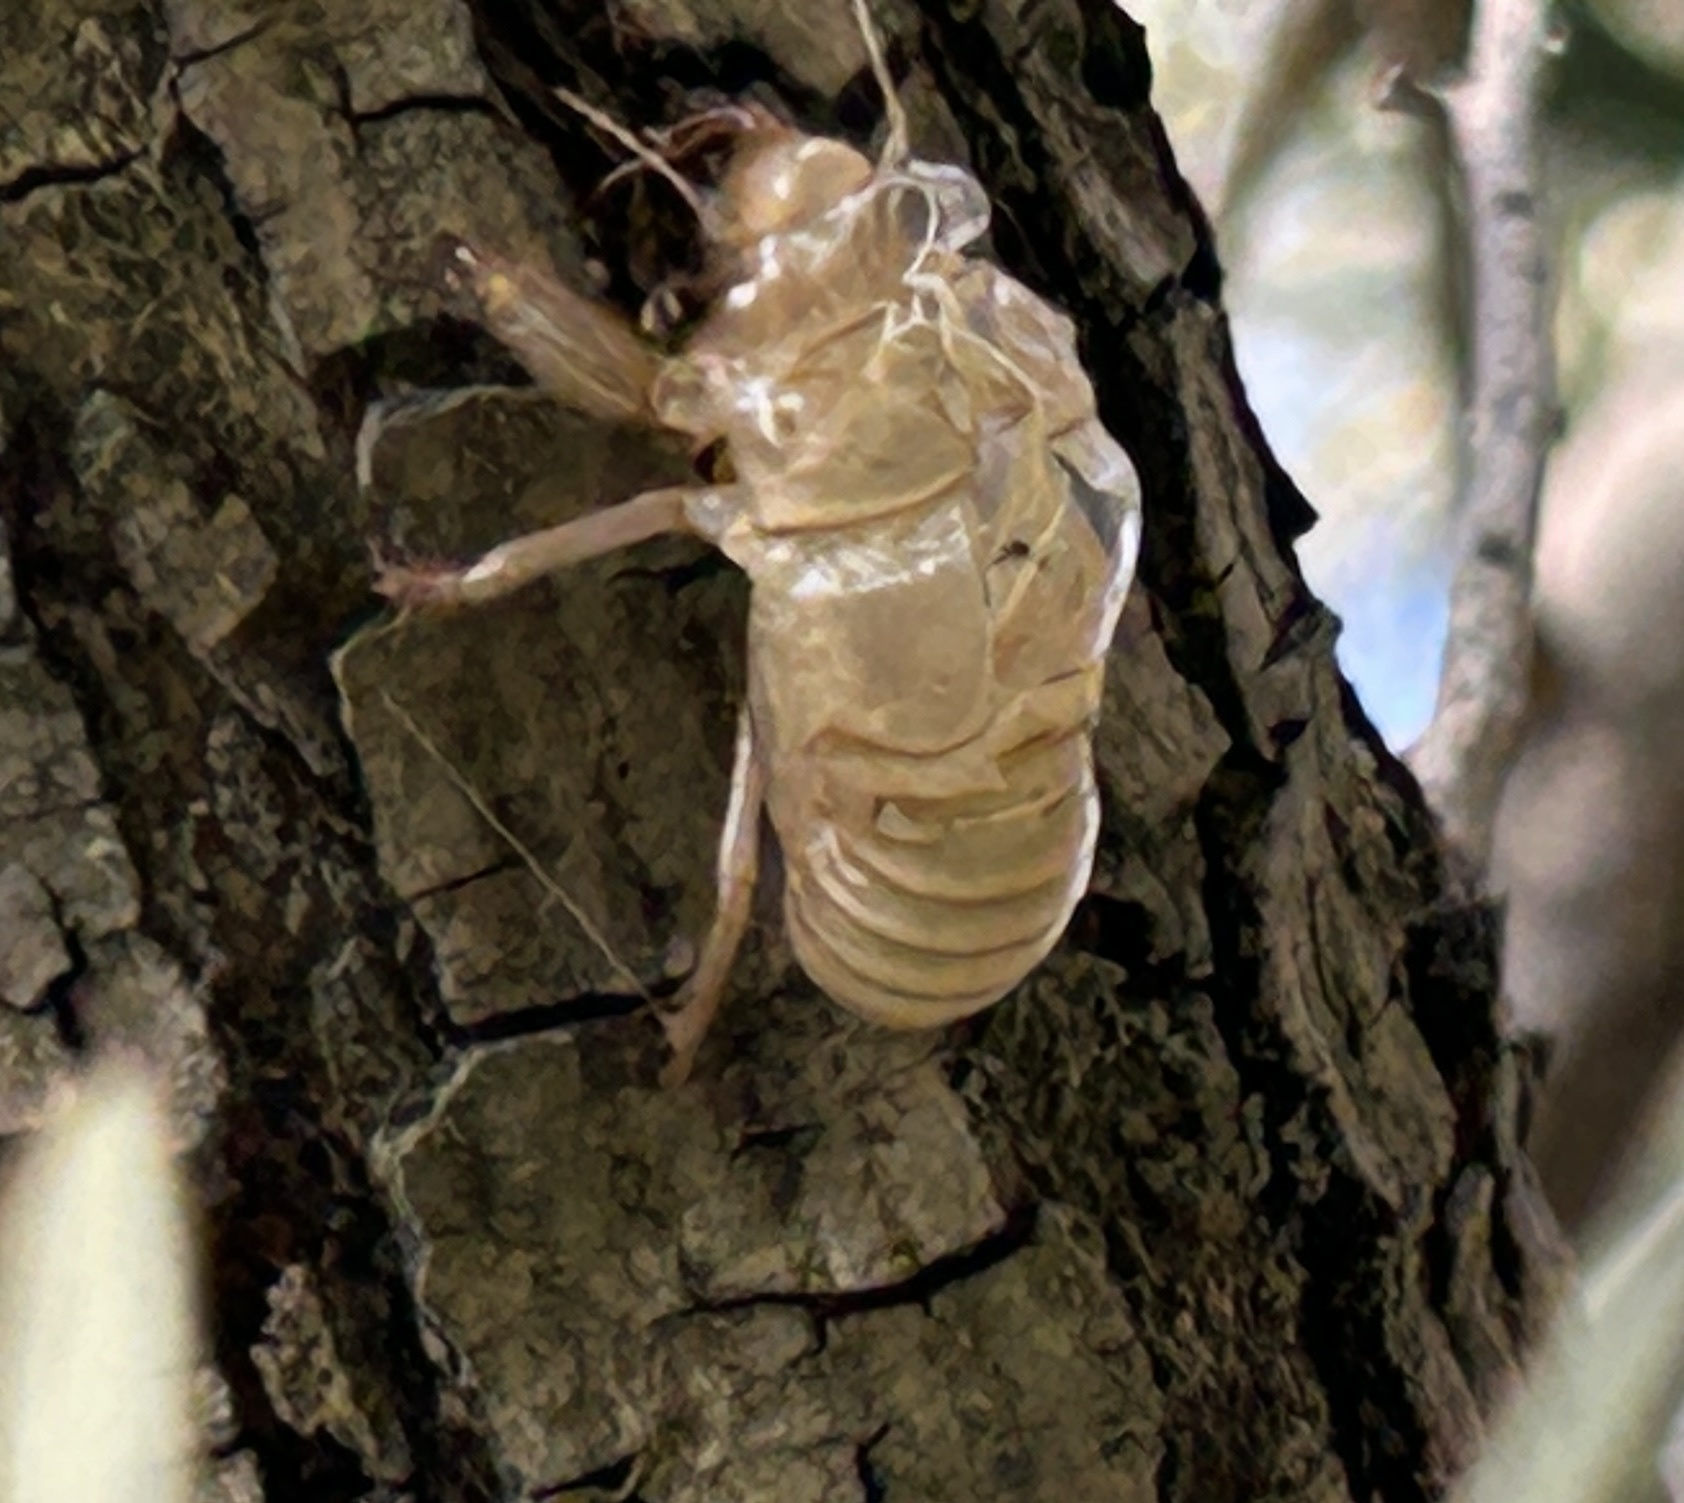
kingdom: Animalia
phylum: Arthropoda
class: Insecta
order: Hemiptera
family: Cicadidae
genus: Cicada
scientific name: Cicada orni
